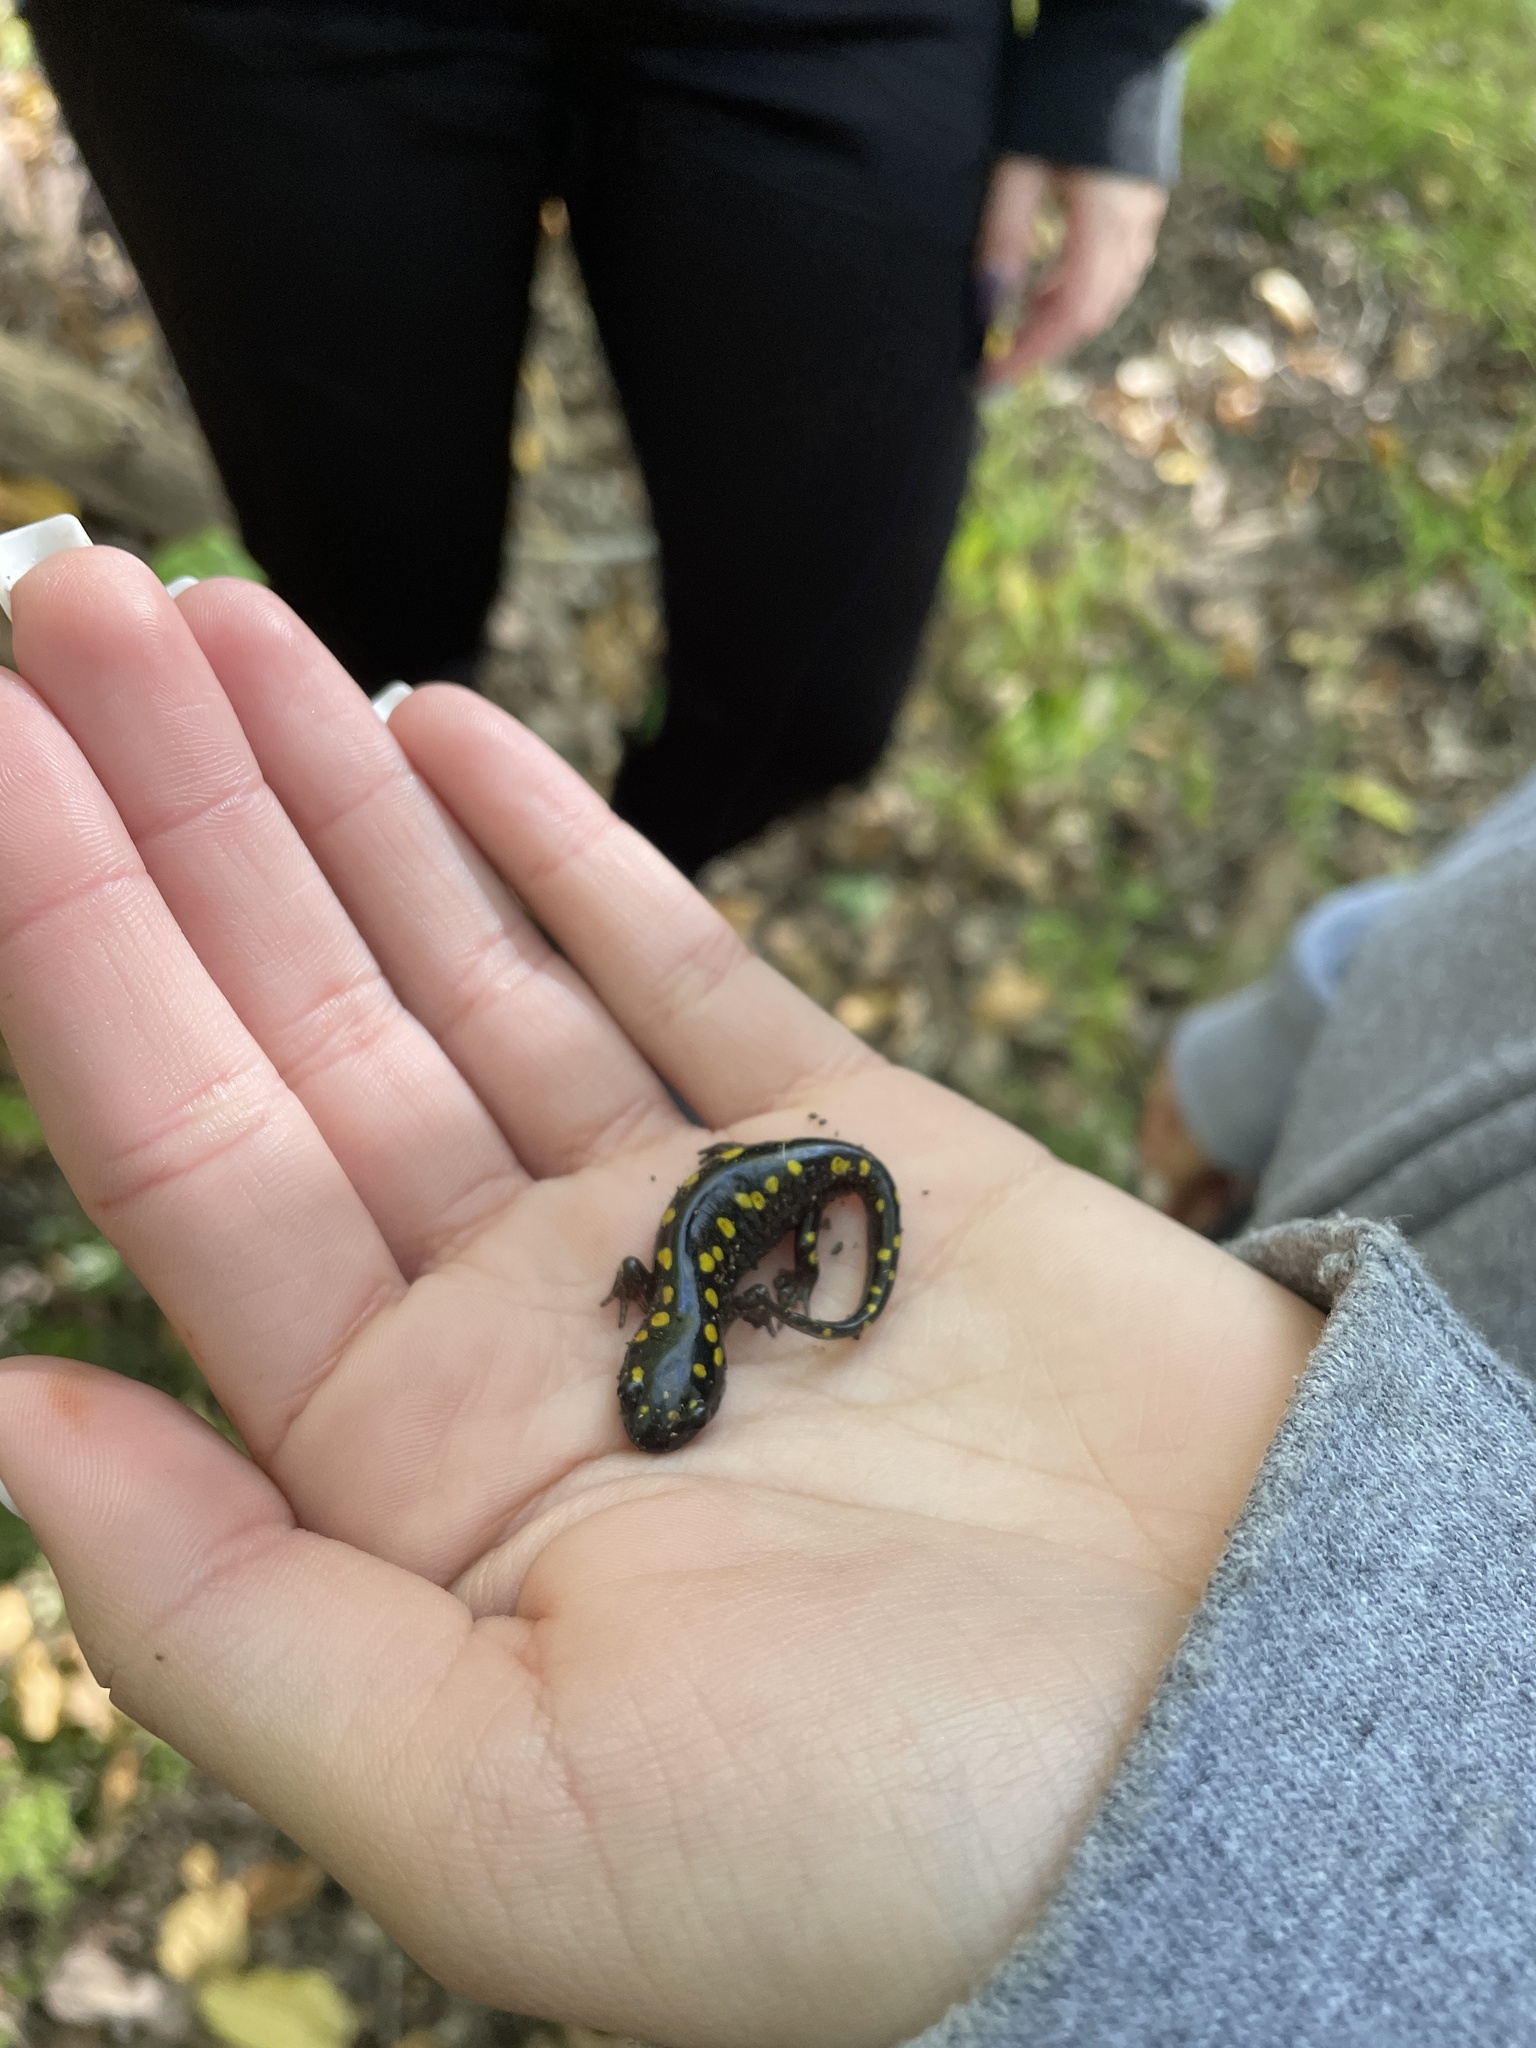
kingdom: Animalia
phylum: Chordata
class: Amphibia
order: Caudata
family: Ambystomatidae
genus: Ambystoma
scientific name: Ambystoma maculatum
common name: Spotted salamander
